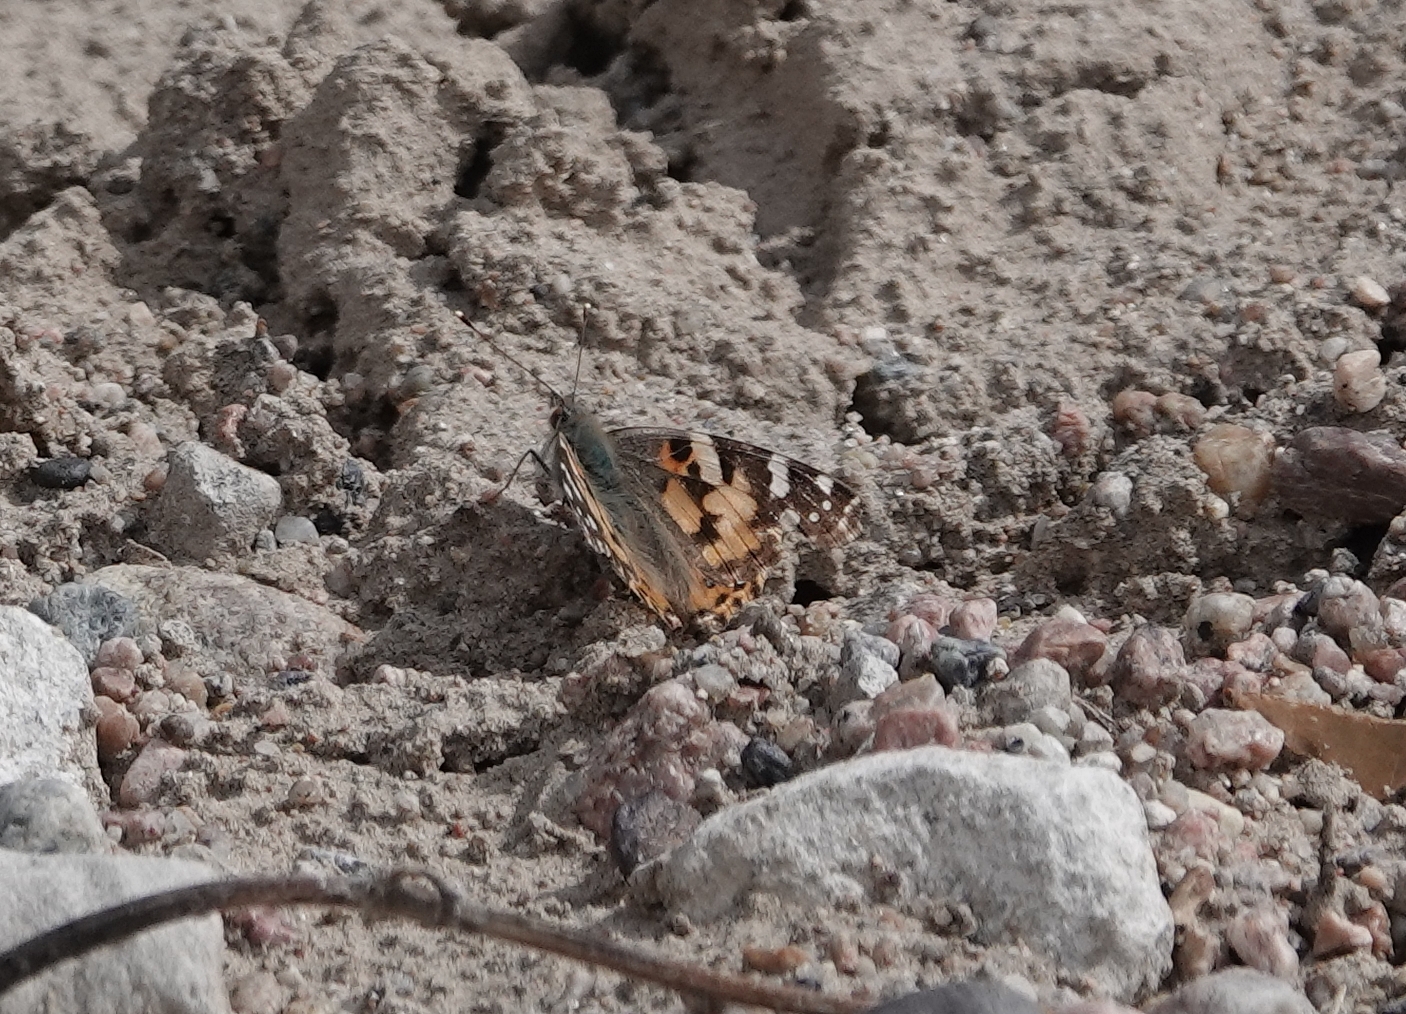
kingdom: Animalia
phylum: Arthropoda
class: Insecta
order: Lepidoptera
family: Nymphalidae
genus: Vanessa
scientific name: Vanessa cardui
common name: Painted lady
